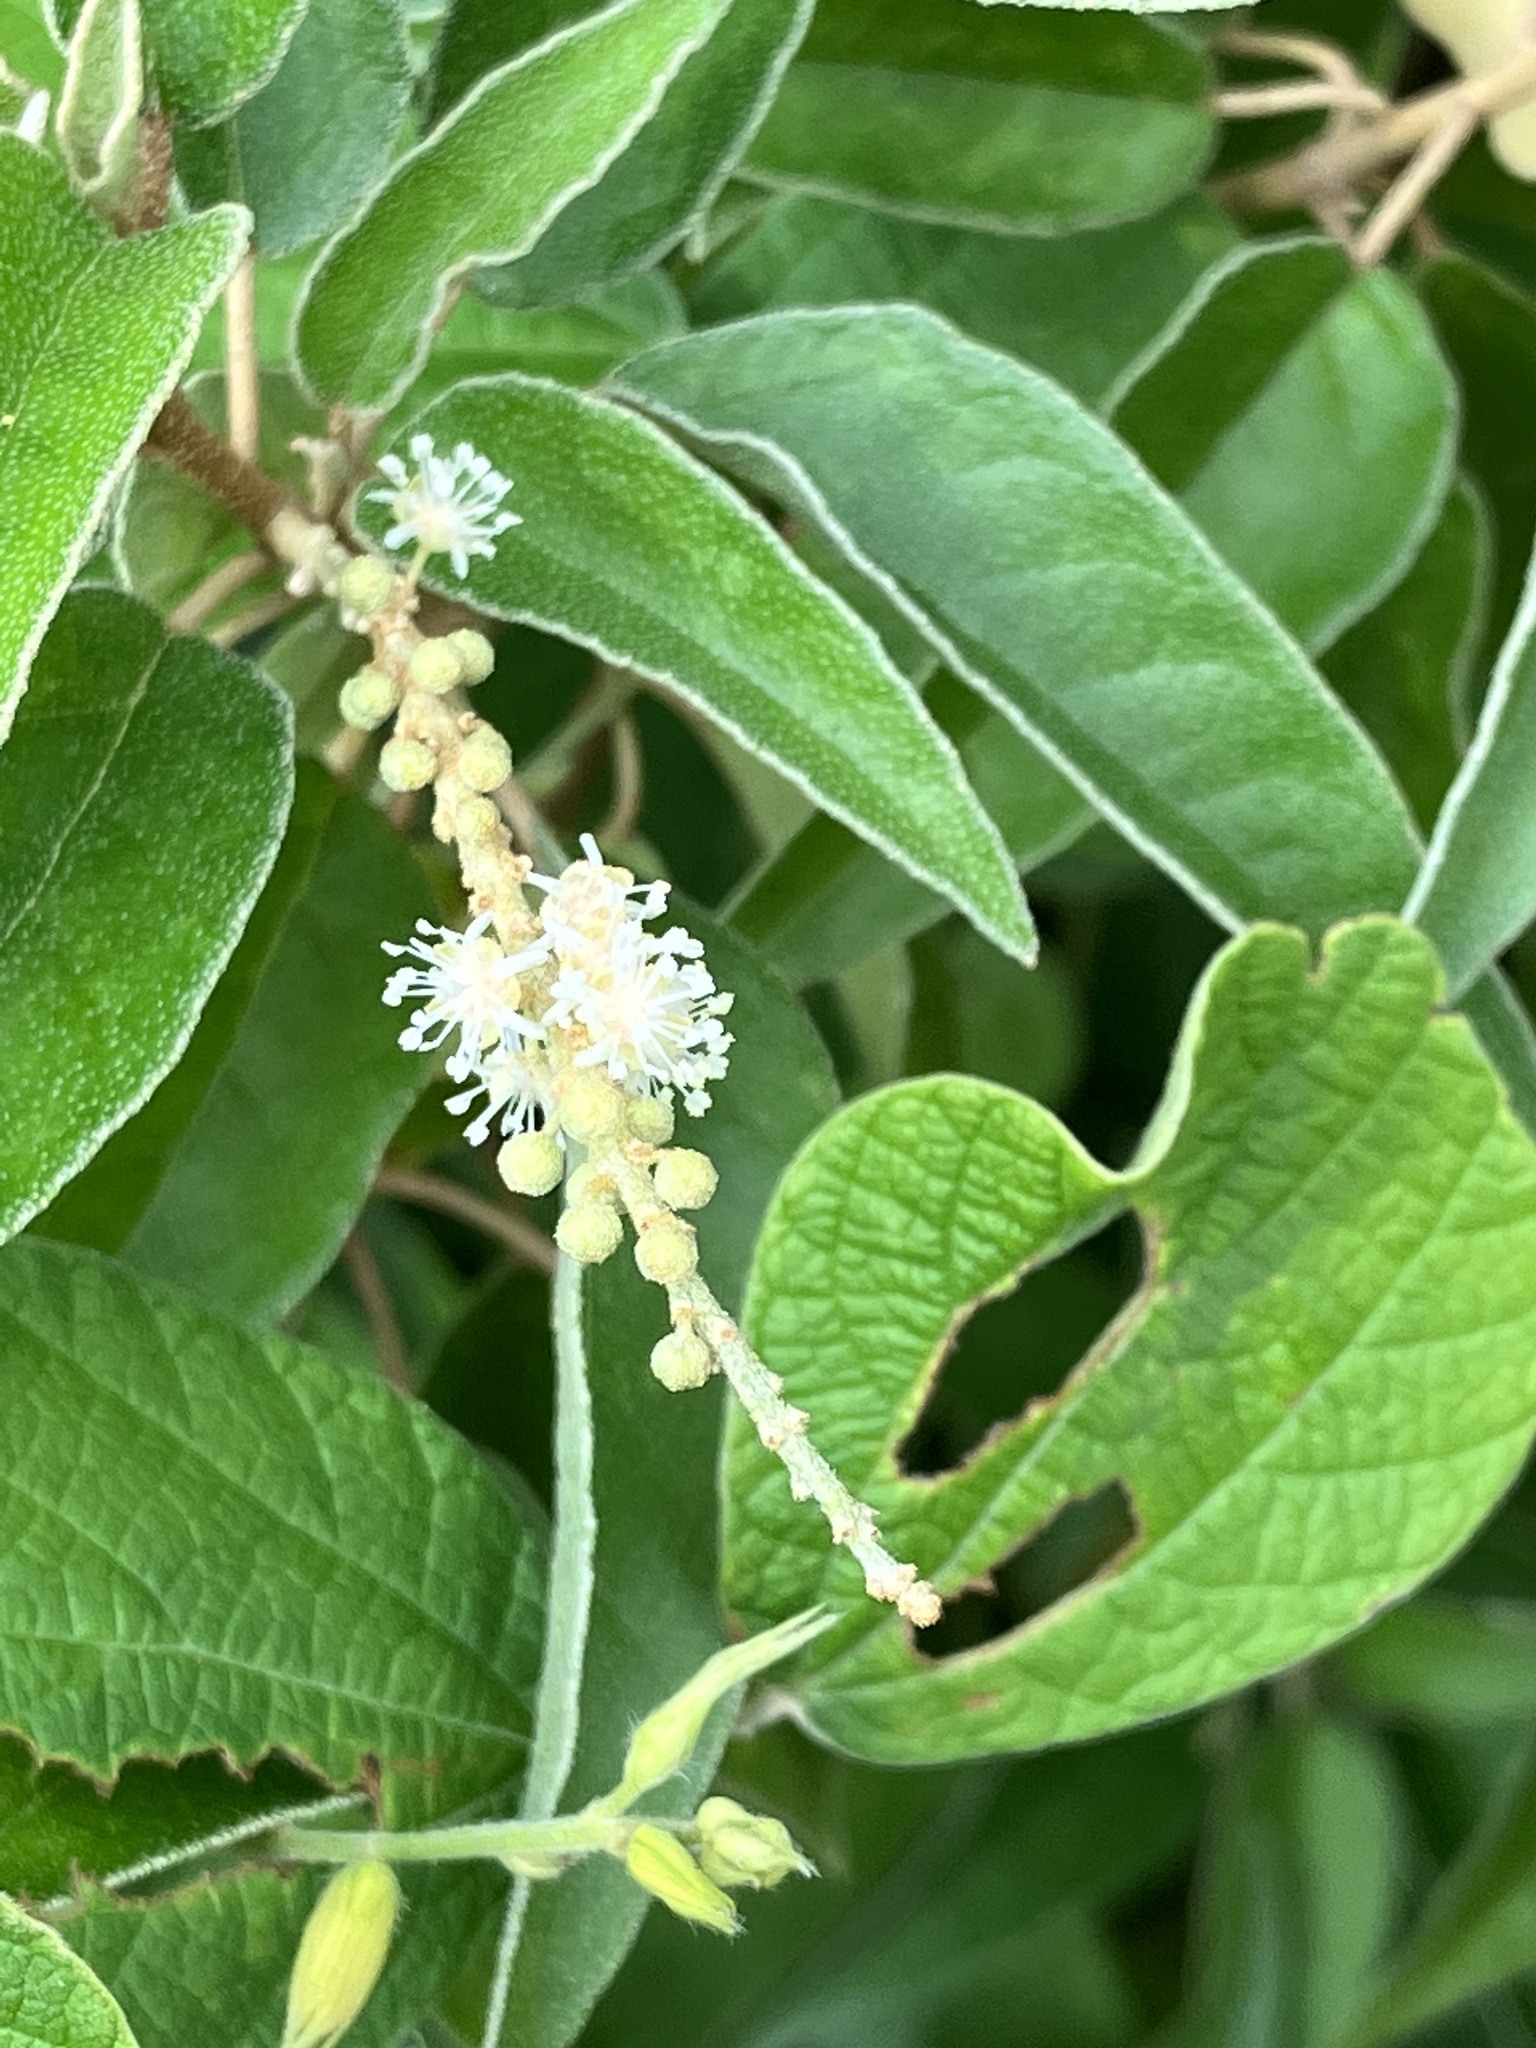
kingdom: Plantae
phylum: Tracheophyta
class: Magnoliopsida
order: Malpighiales
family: Euphorbiaceae
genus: Croton
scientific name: Croton flavens
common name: Yellow balsam
